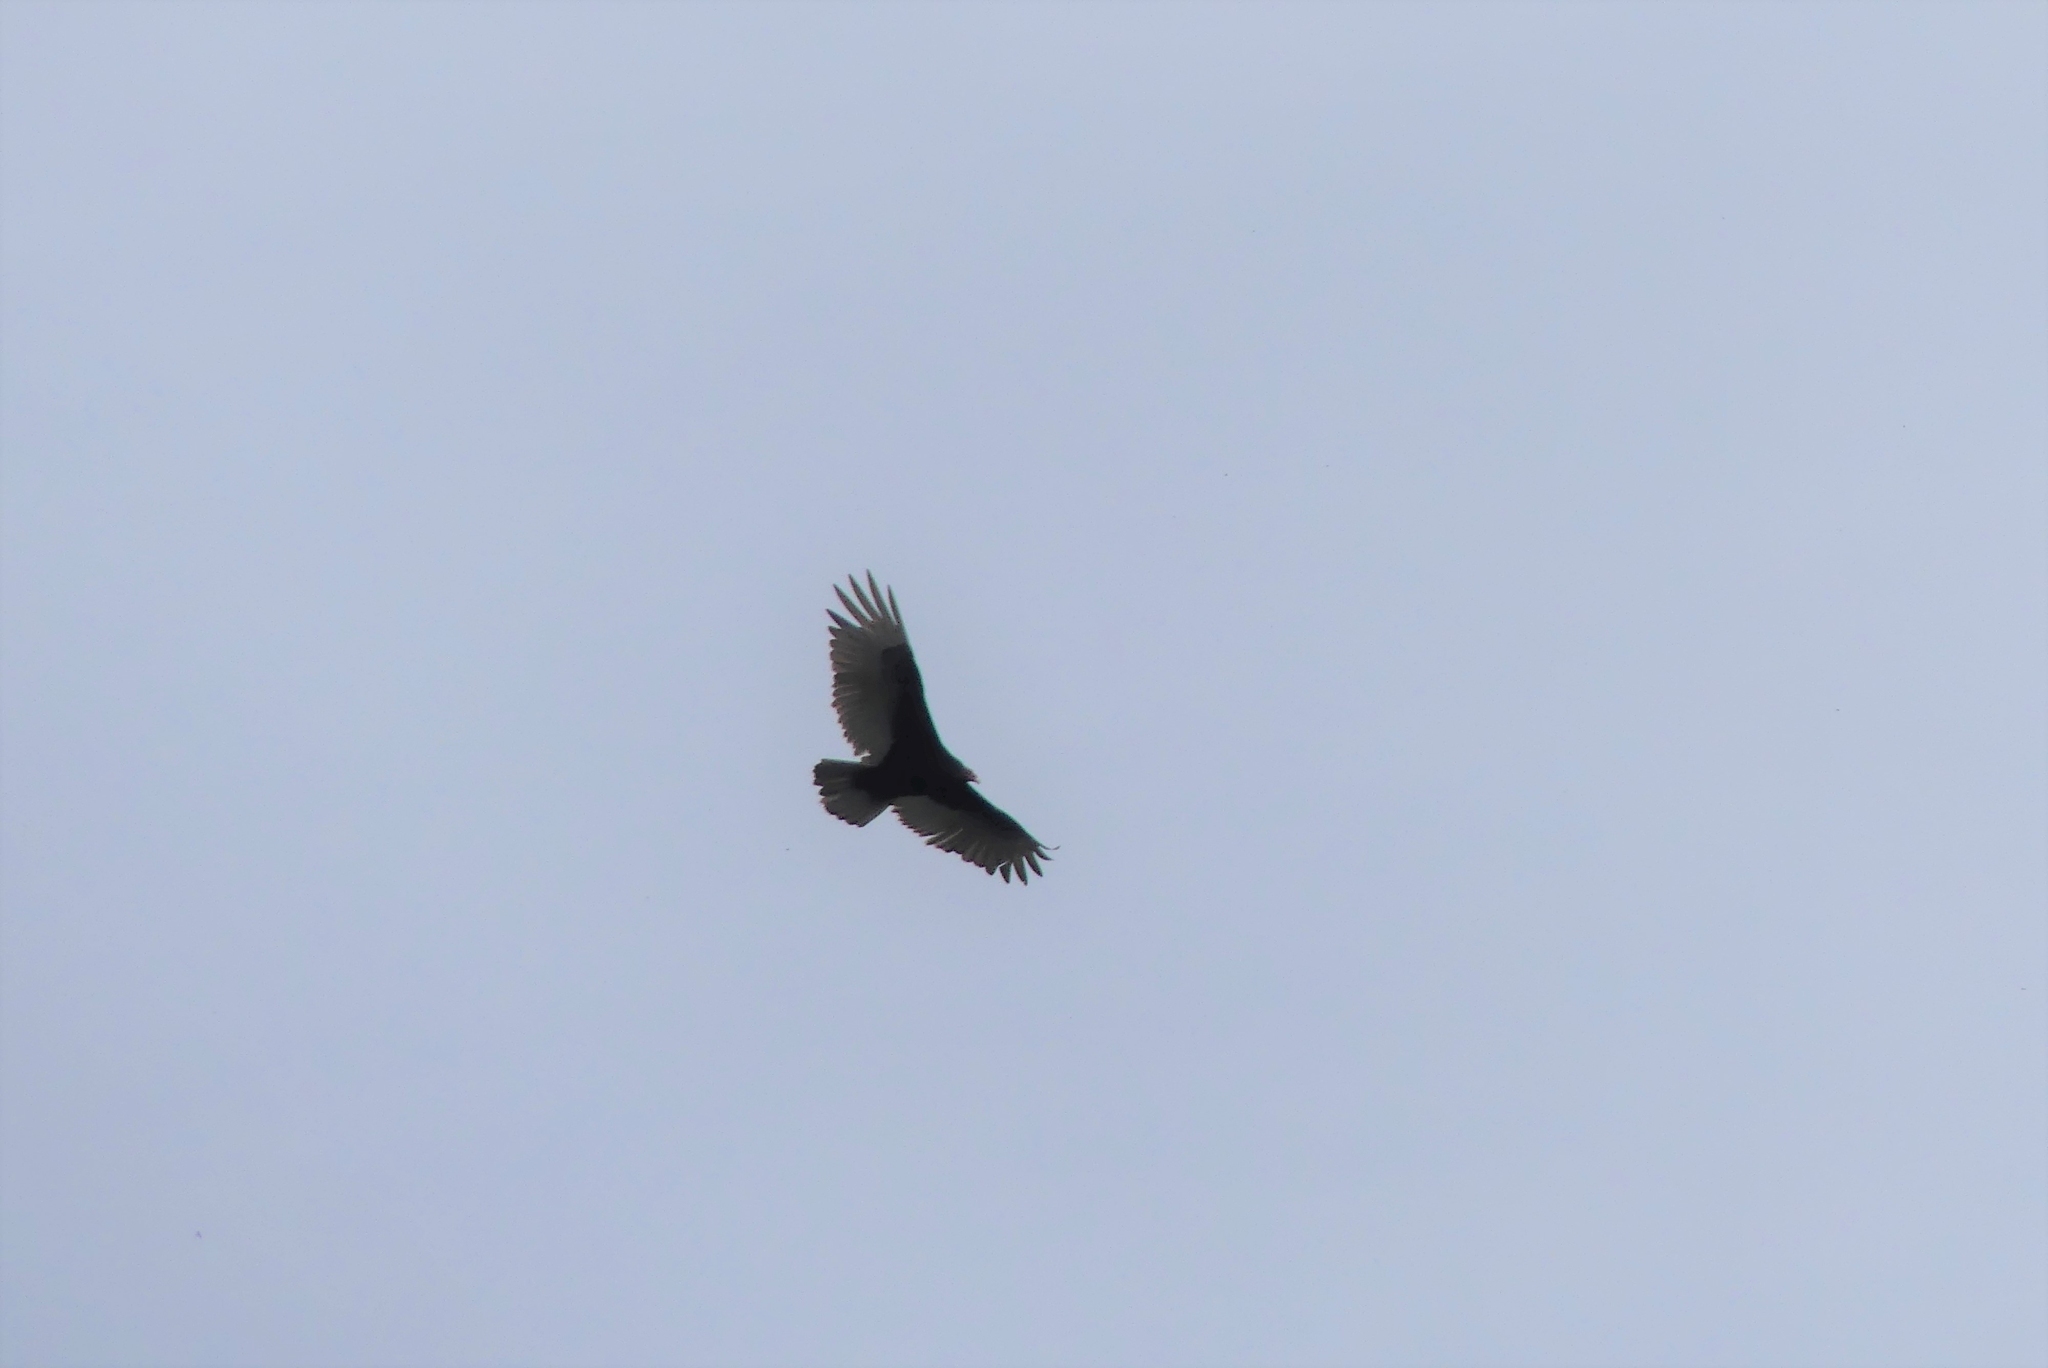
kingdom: Animalia
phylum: Chordata
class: Aves
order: Accipitriformes
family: Cathartidae
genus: Cathartes
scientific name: Cathartes aura
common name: Turkey vulture
